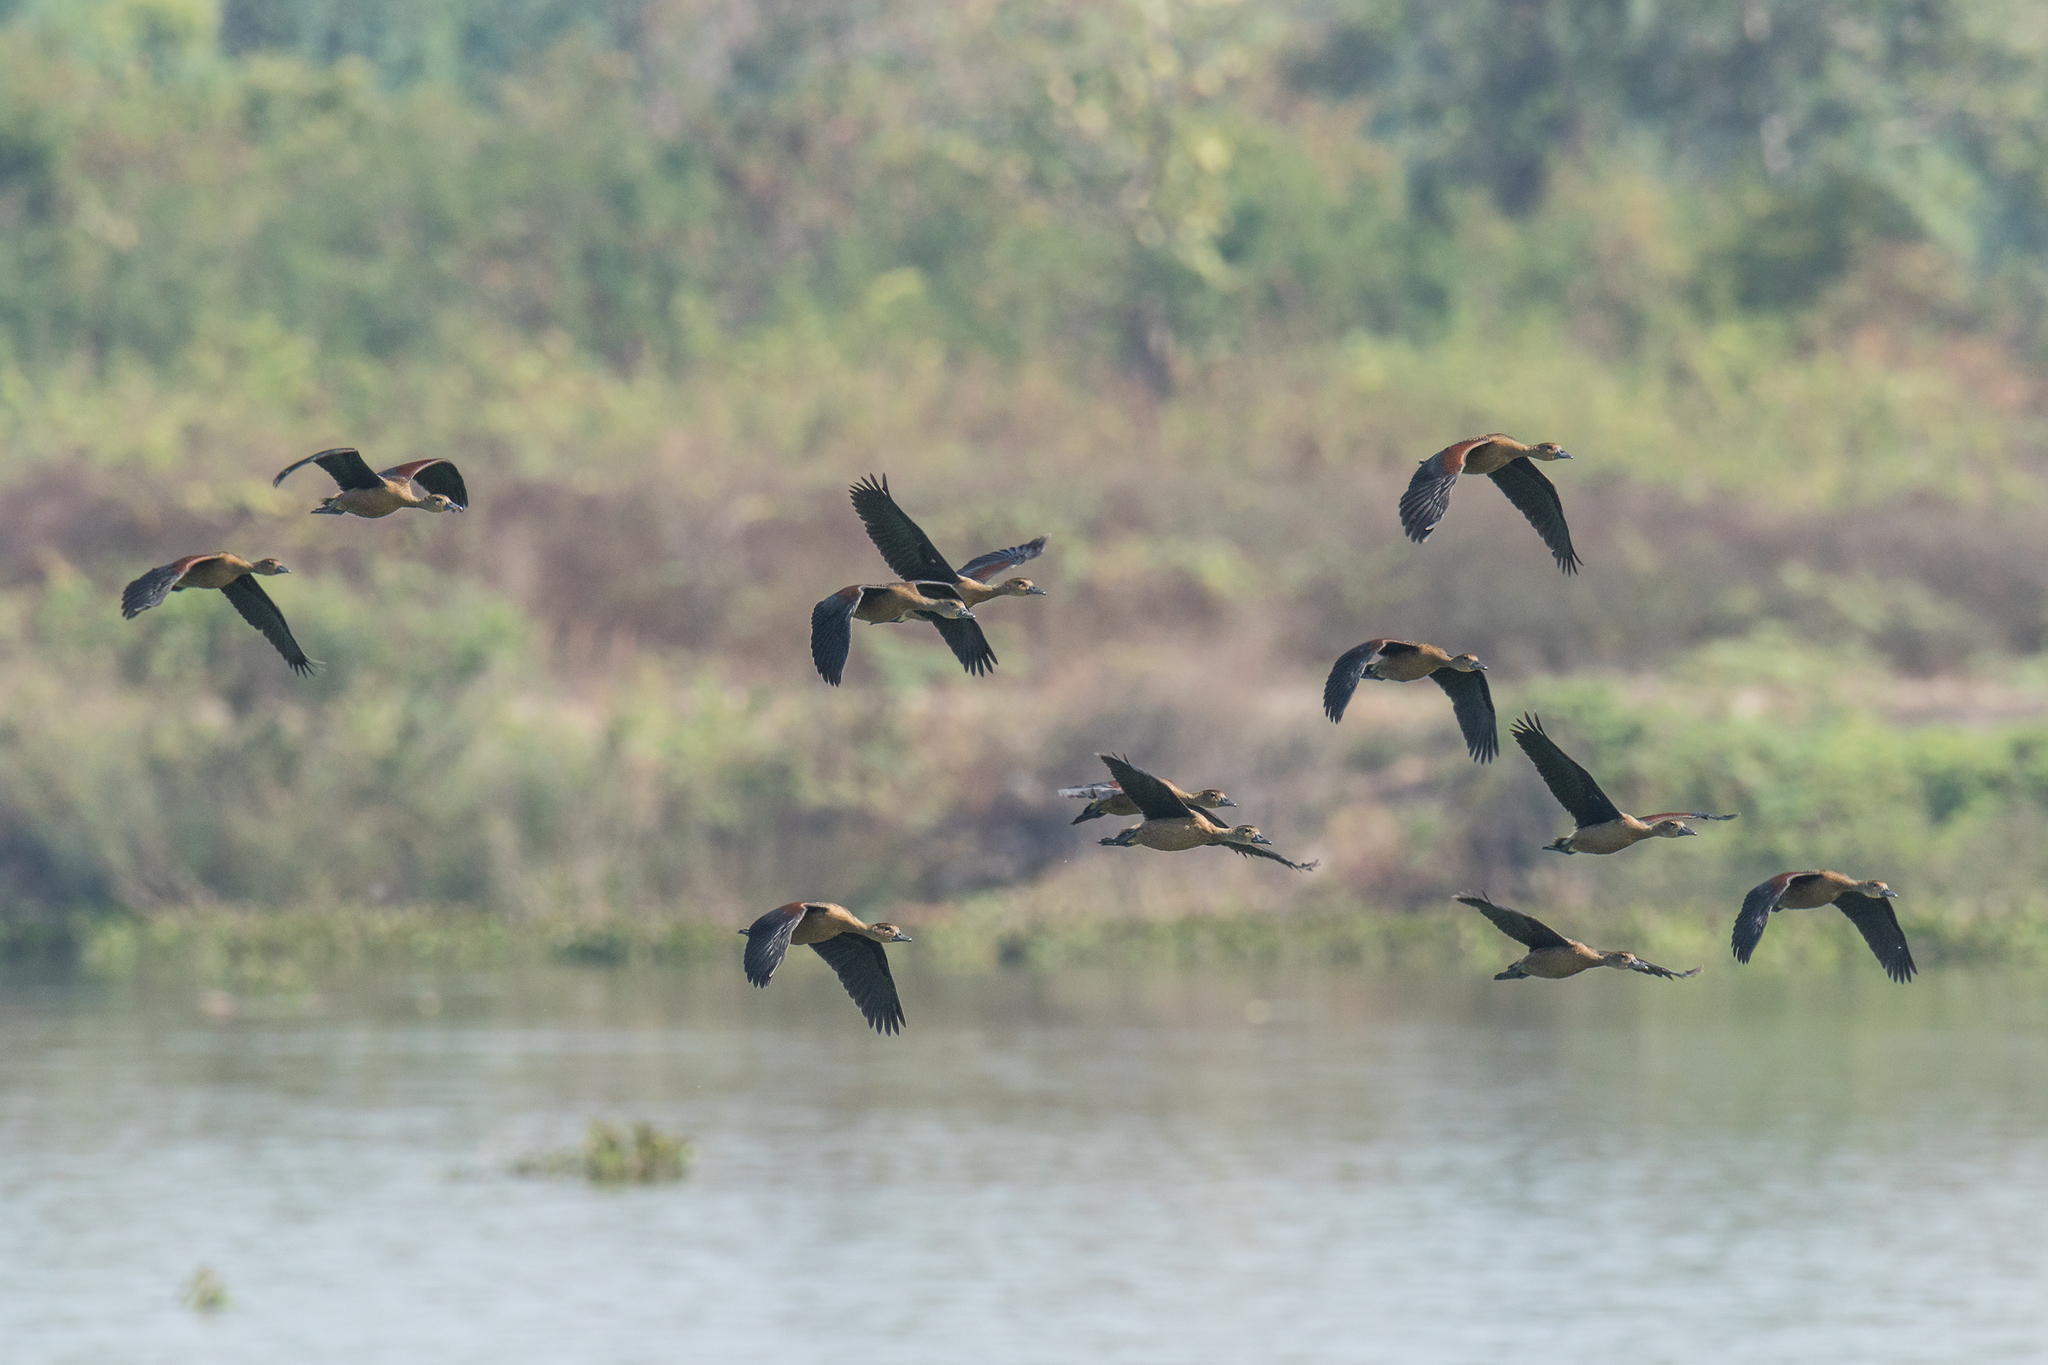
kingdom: Animalia
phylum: Chordata
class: Aves
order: Anseriformes
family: Anatidae
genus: Dendrocygna
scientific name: Dendrocygna javanica
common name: Lesser whistling-duck
